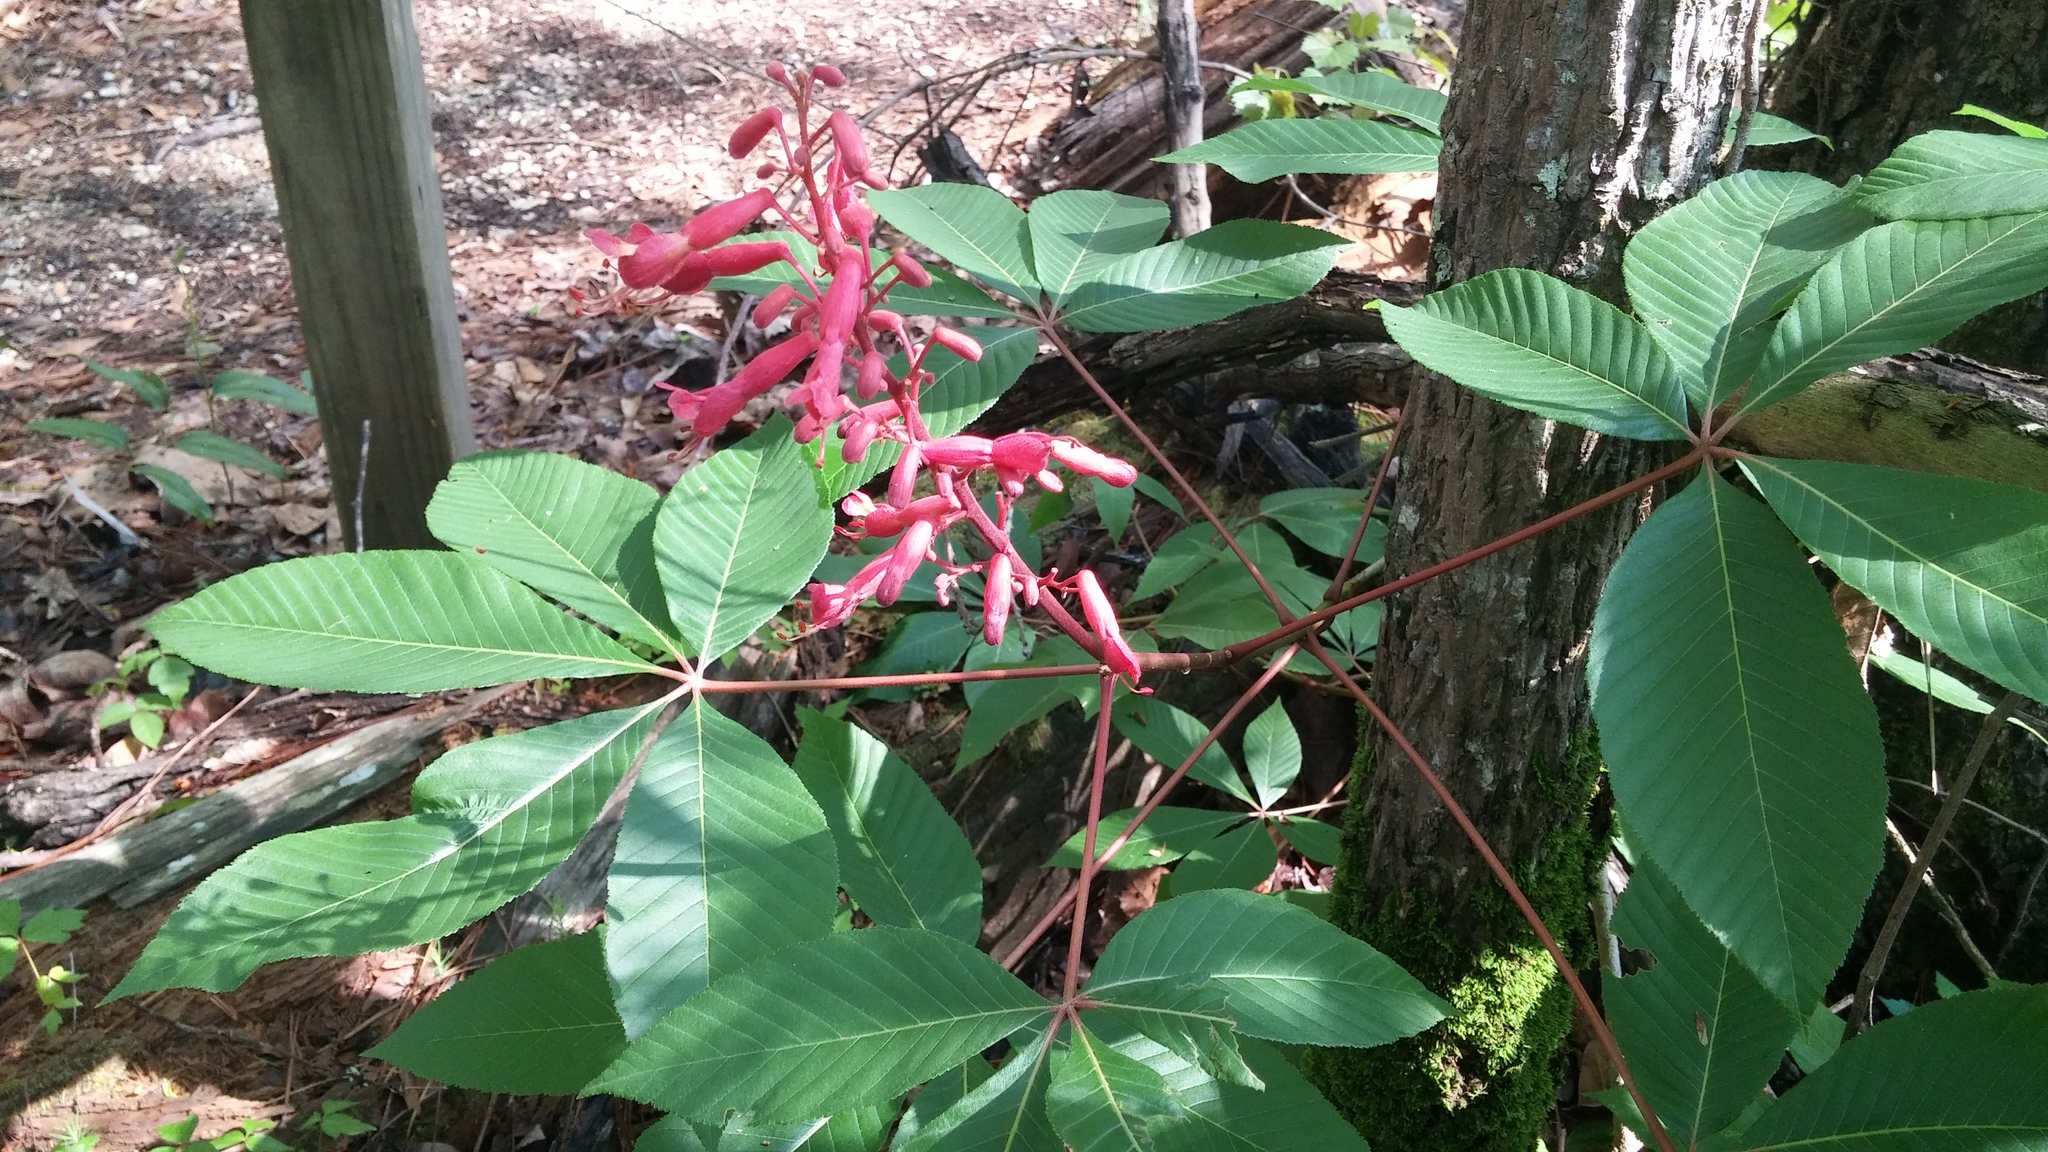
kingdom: Plantae
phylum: Tracheophyta
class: Magnoliopsida
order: Sapindales
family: Sapindaceae
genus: Aesculus
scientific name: Aesculus pavia
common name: Red buckeye
